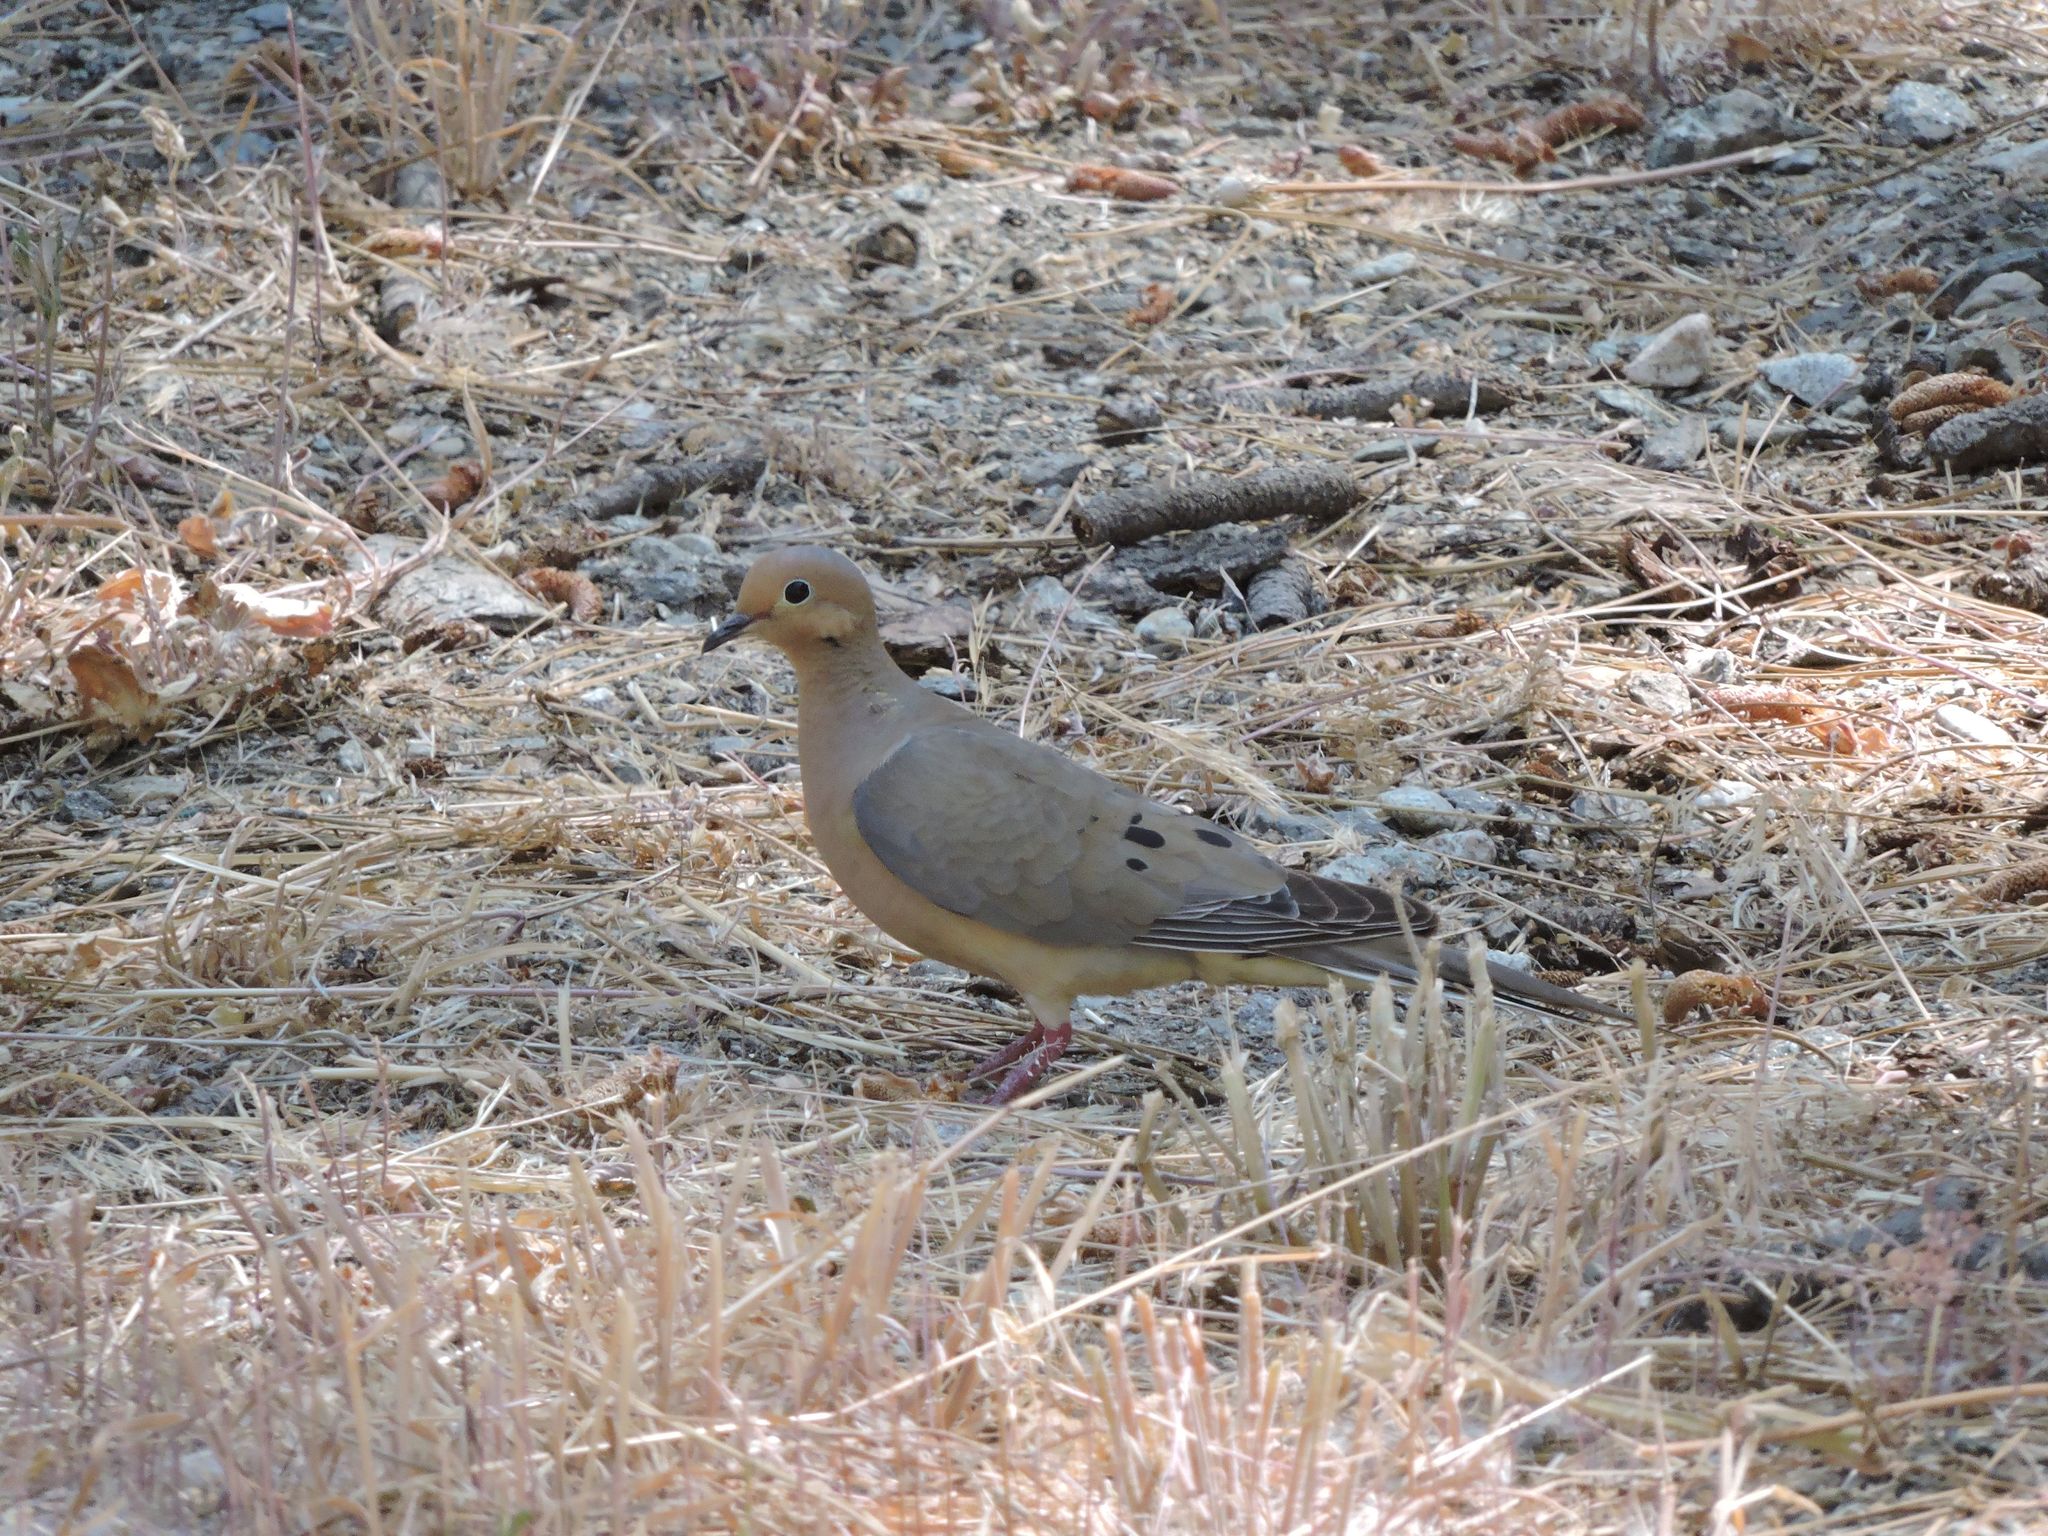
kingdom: Animalia
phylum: Chordata
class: Aves
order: Columbiformes
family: Columbidae
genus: Zenaida
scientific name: Zenaida macroura
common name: Mourning dove
